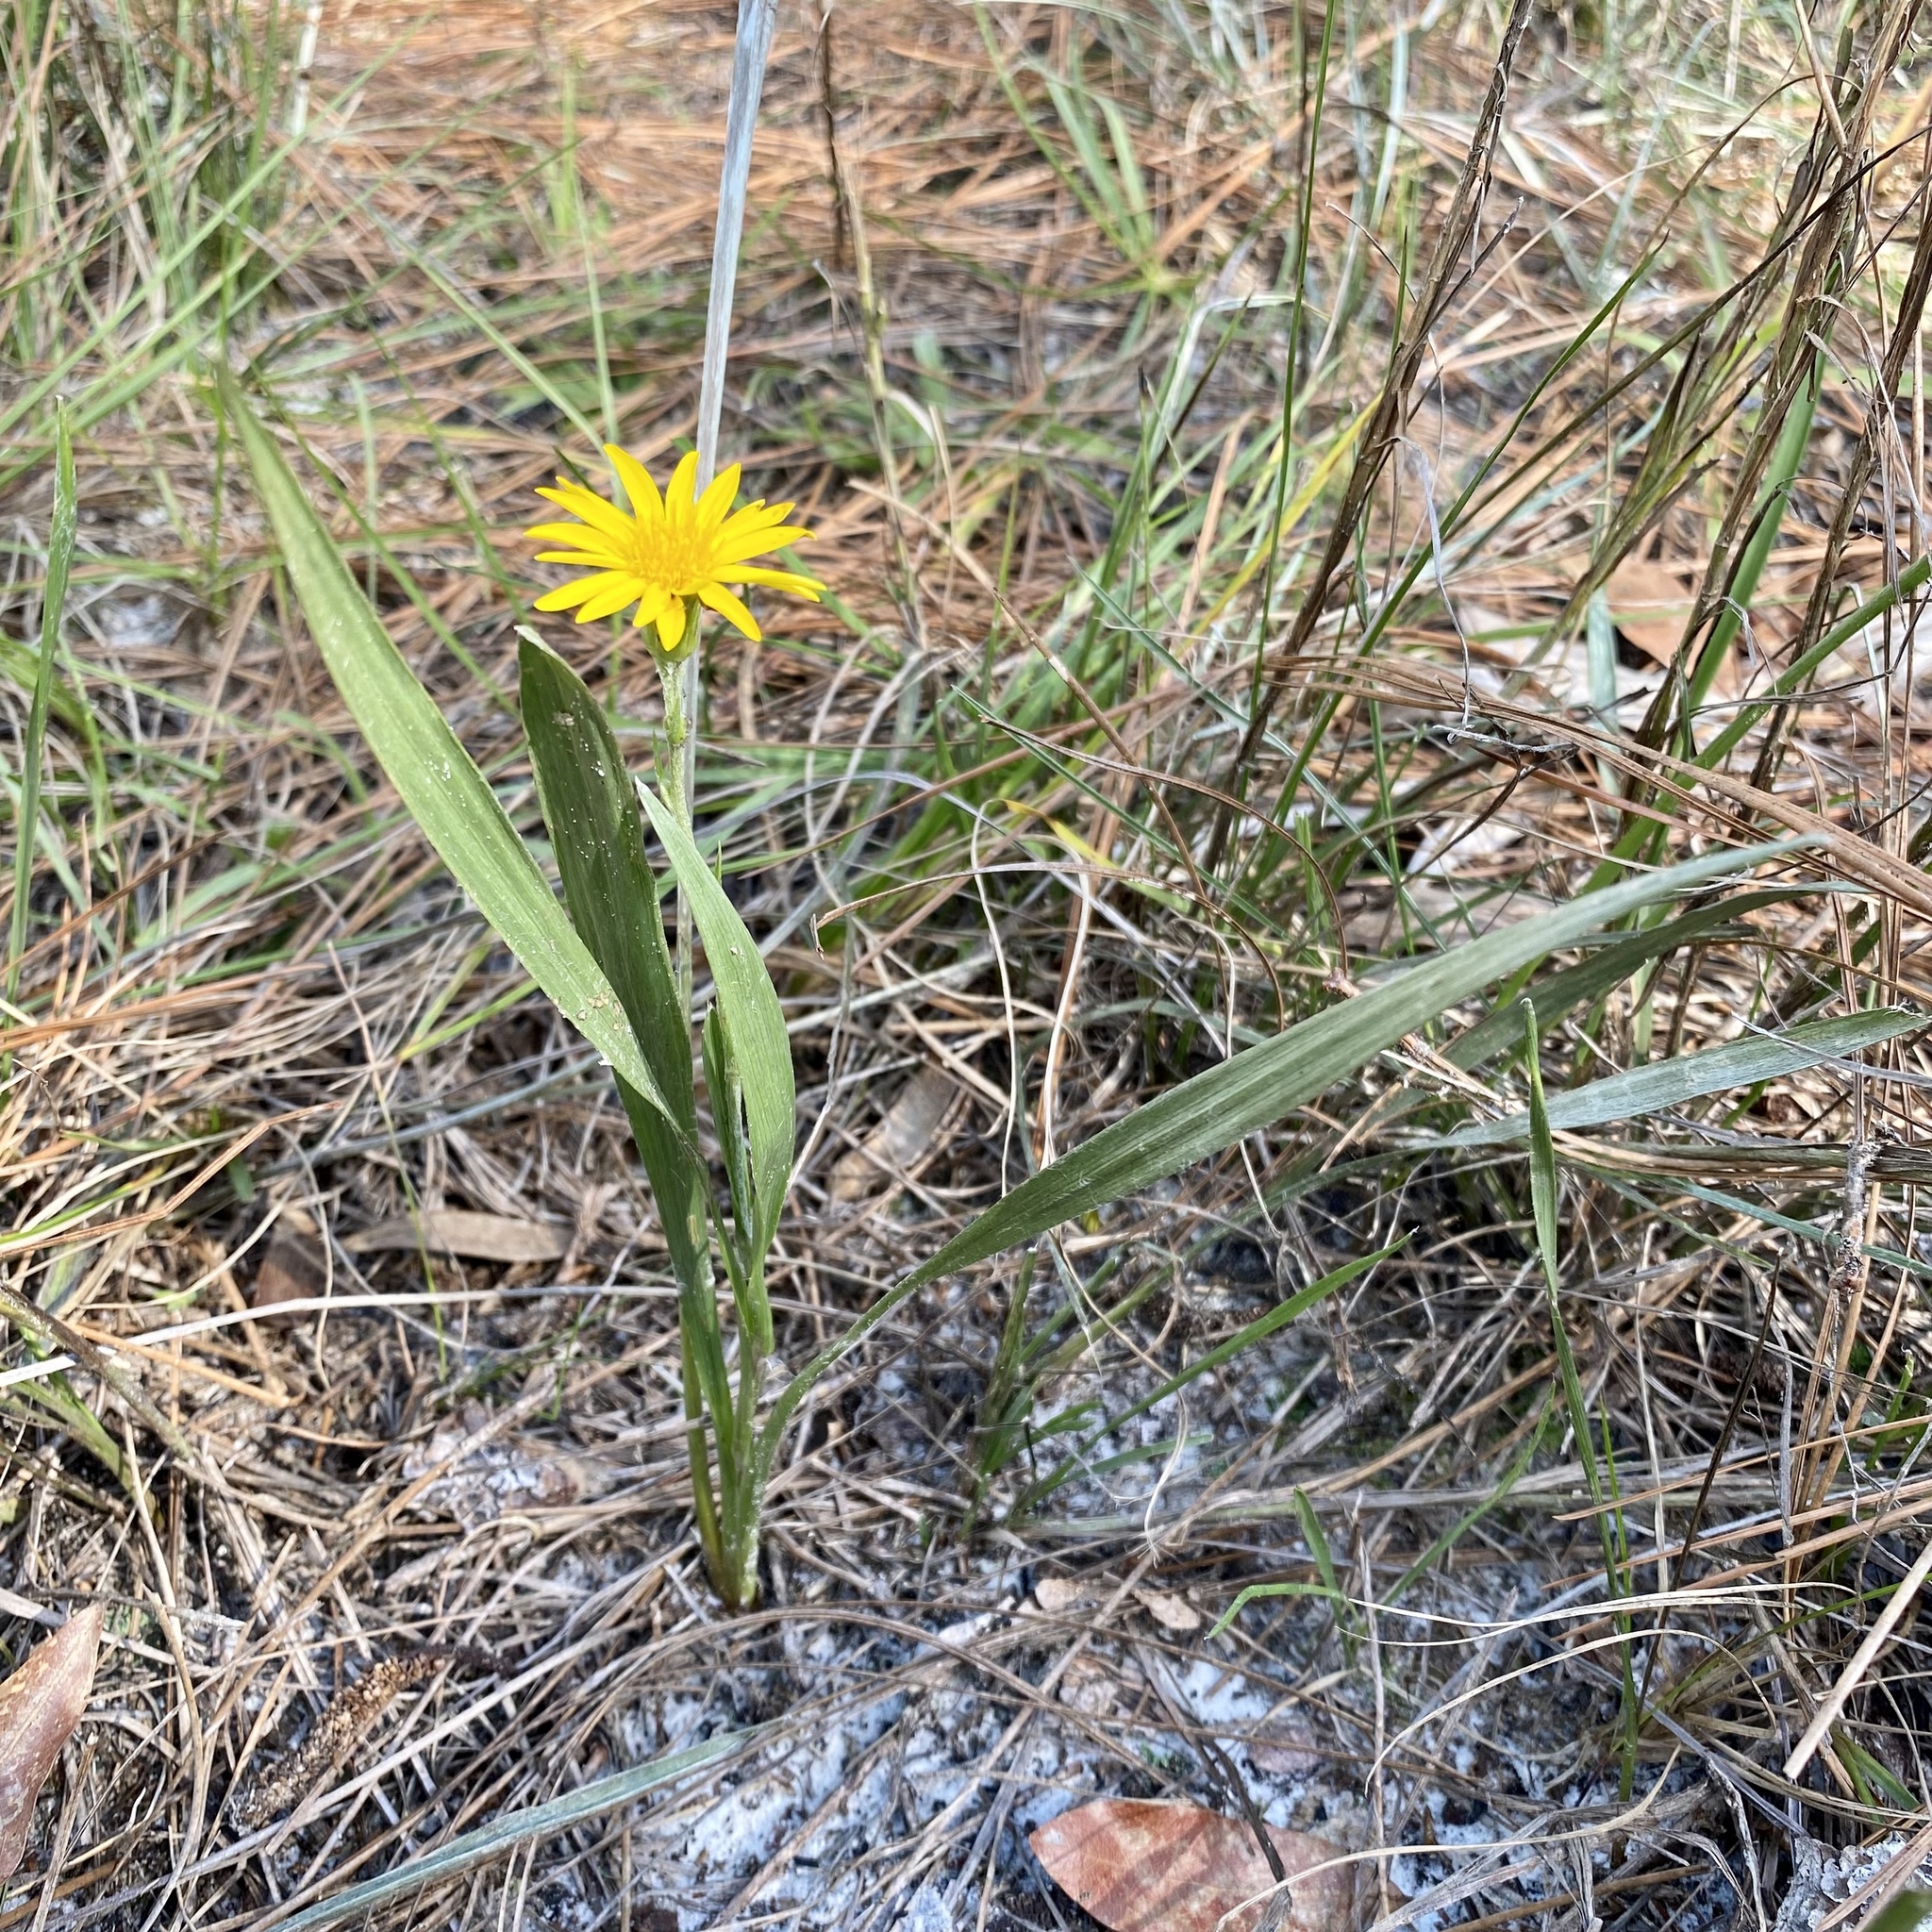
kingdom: Plantae
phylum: Tracheophyta
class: Magnoliopsida
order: Asterales
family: Asteraceae
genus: Pityopsis
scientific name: Pityopsis graminifolia
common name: Grass-leaf golden-aster
